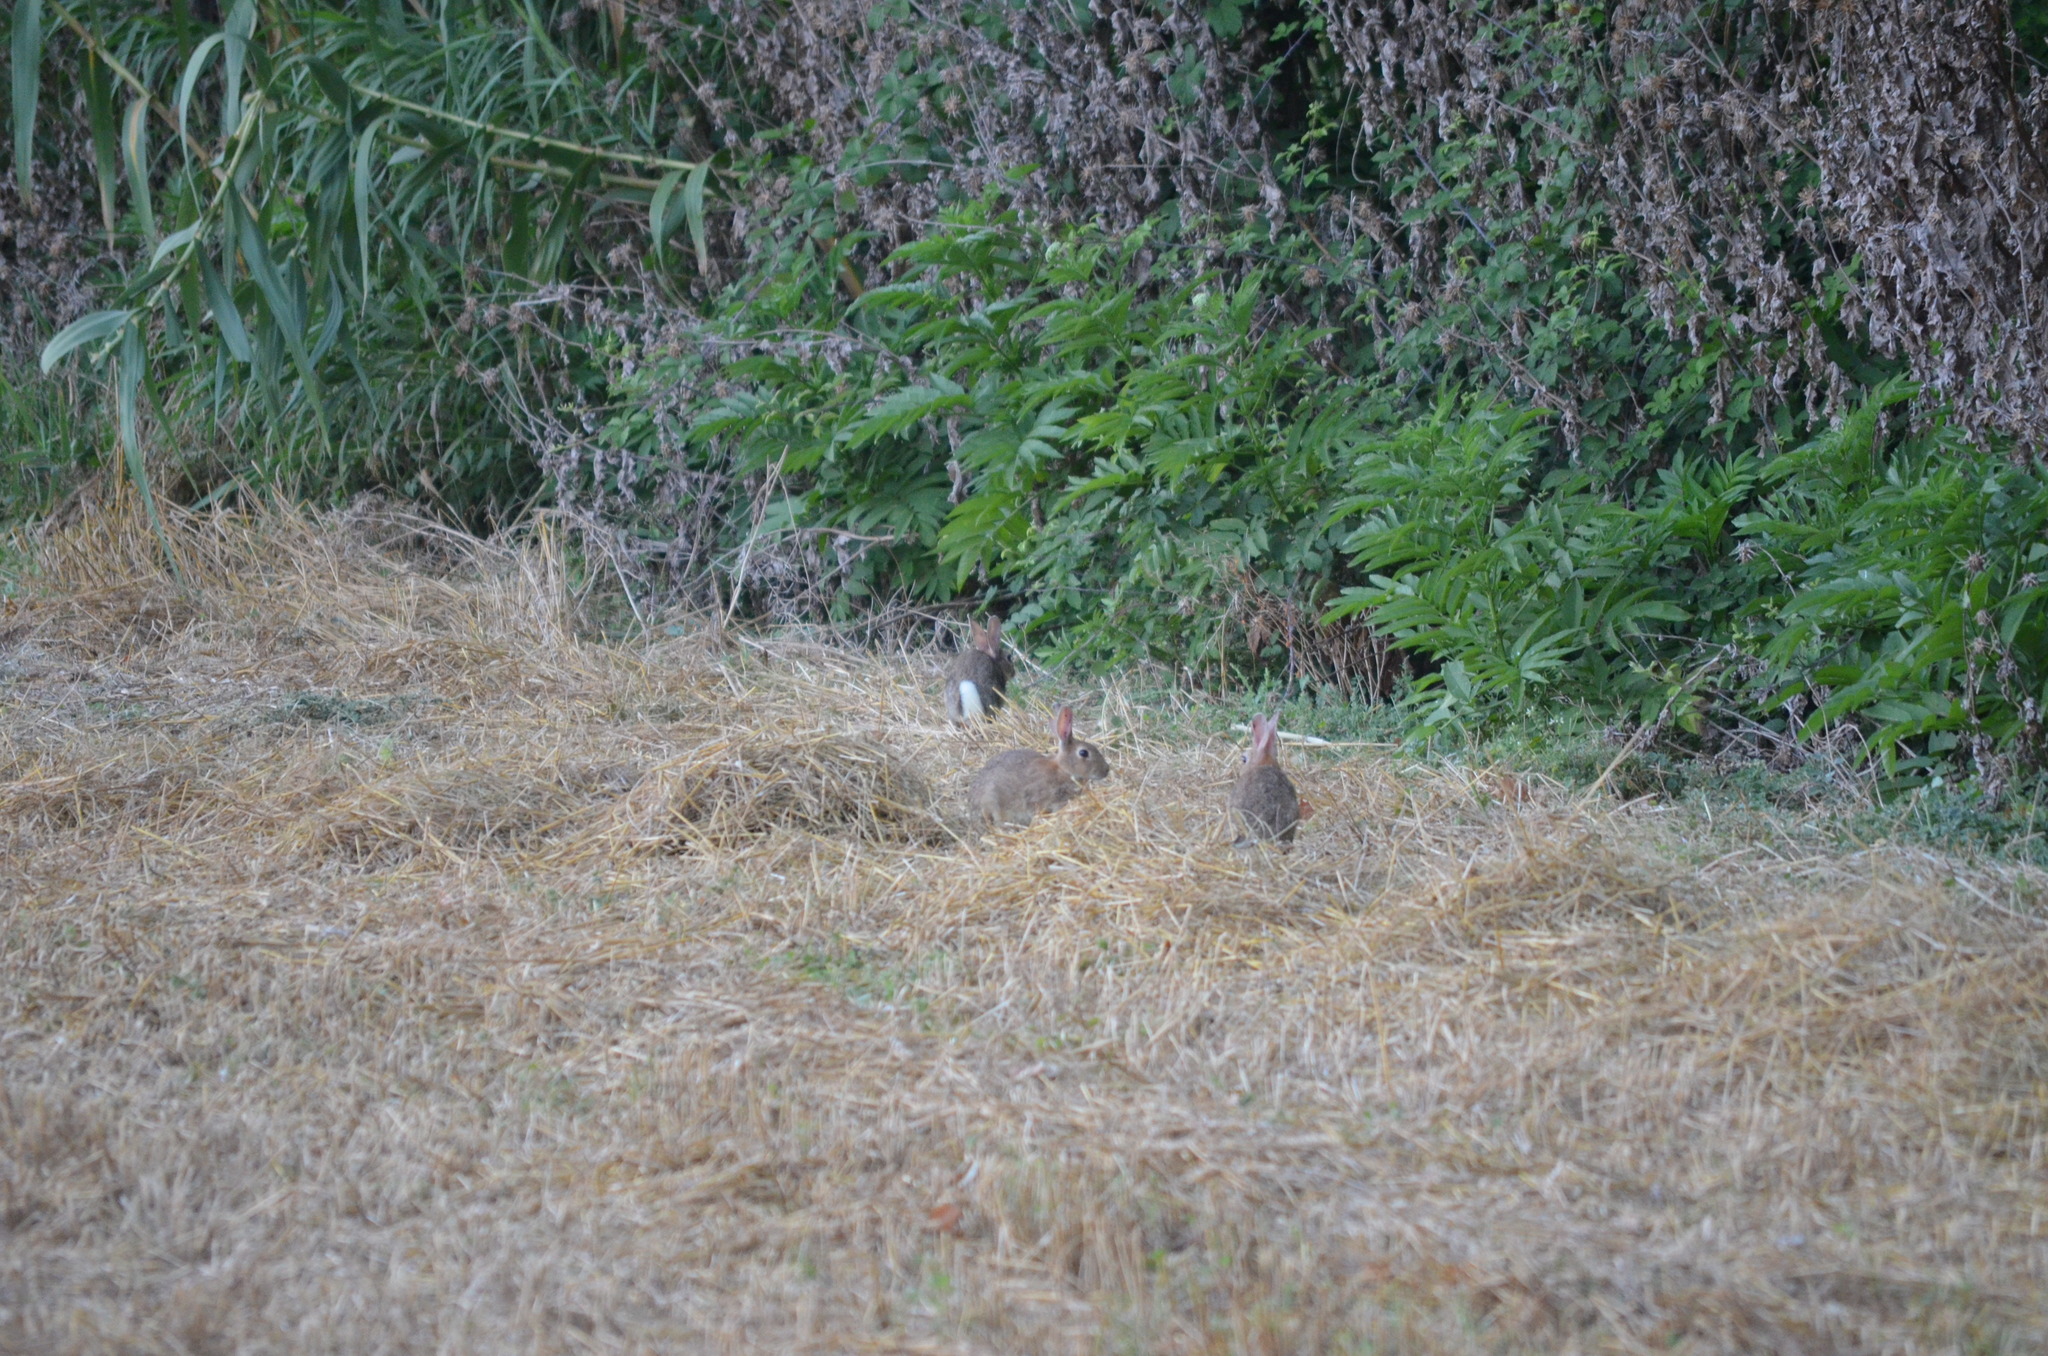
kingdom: Animalia
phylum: Chordata
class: Mammalia
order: Lagomorpha
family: Leporidae
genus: Oryctolagus
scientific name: Oryctolagus cuniculus
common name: European rabbit
